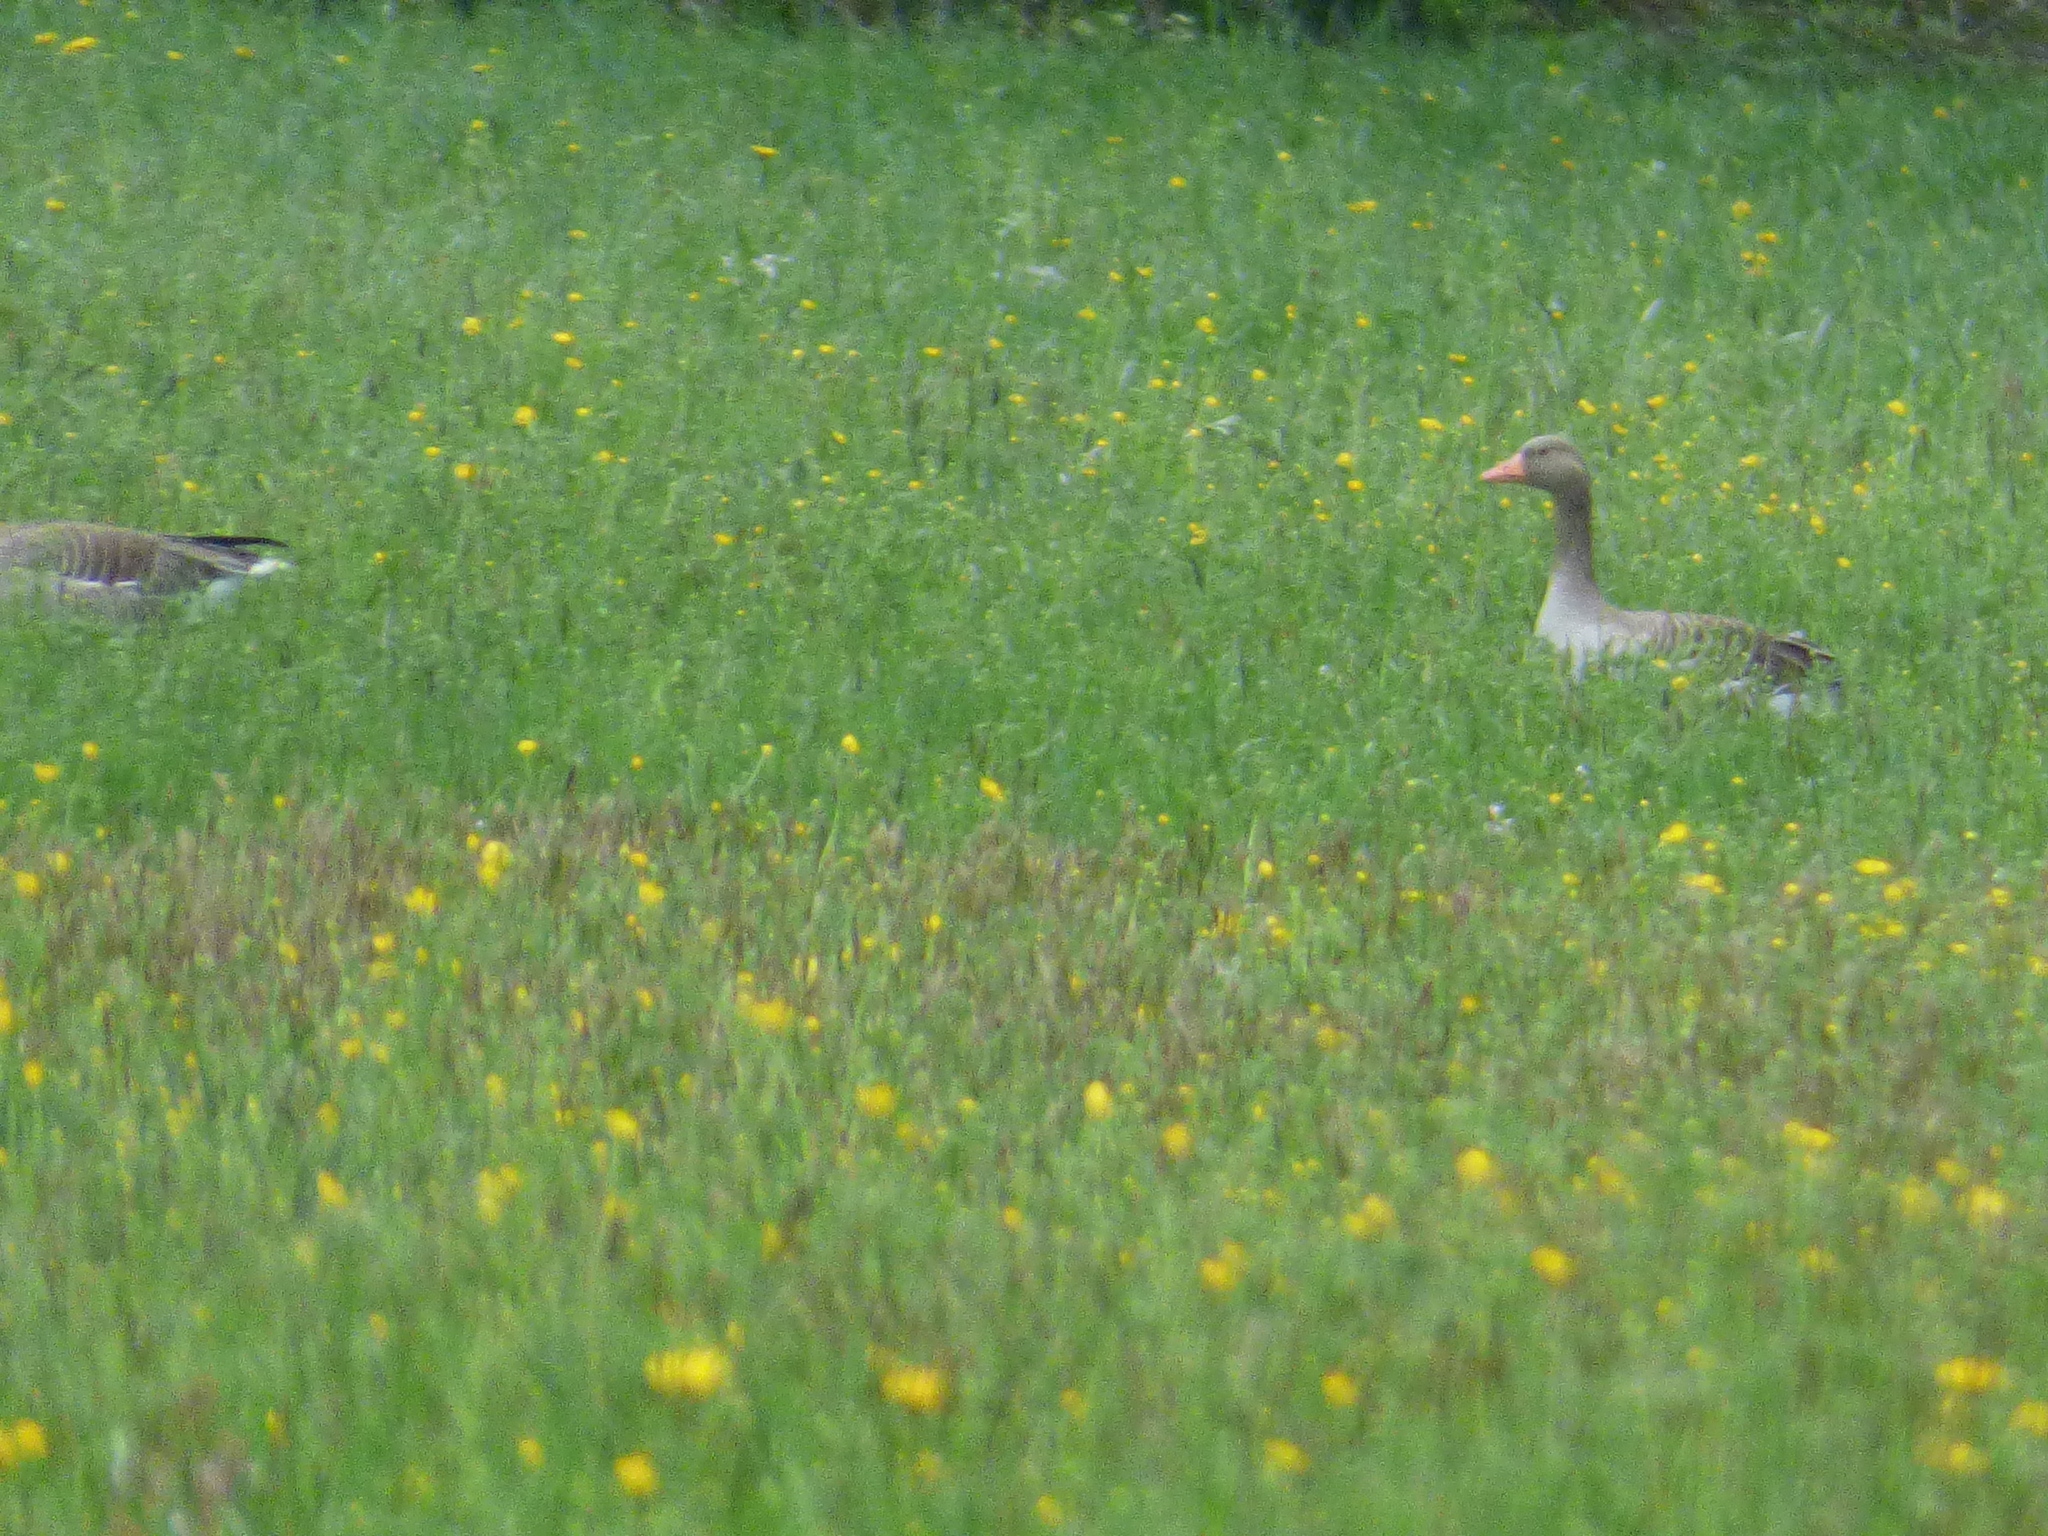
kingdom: Animalia
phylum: Chordata
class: Aves
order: Anseriformes
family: Anatidae
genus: Anser
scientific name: Anser anser
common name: Greylag goose
